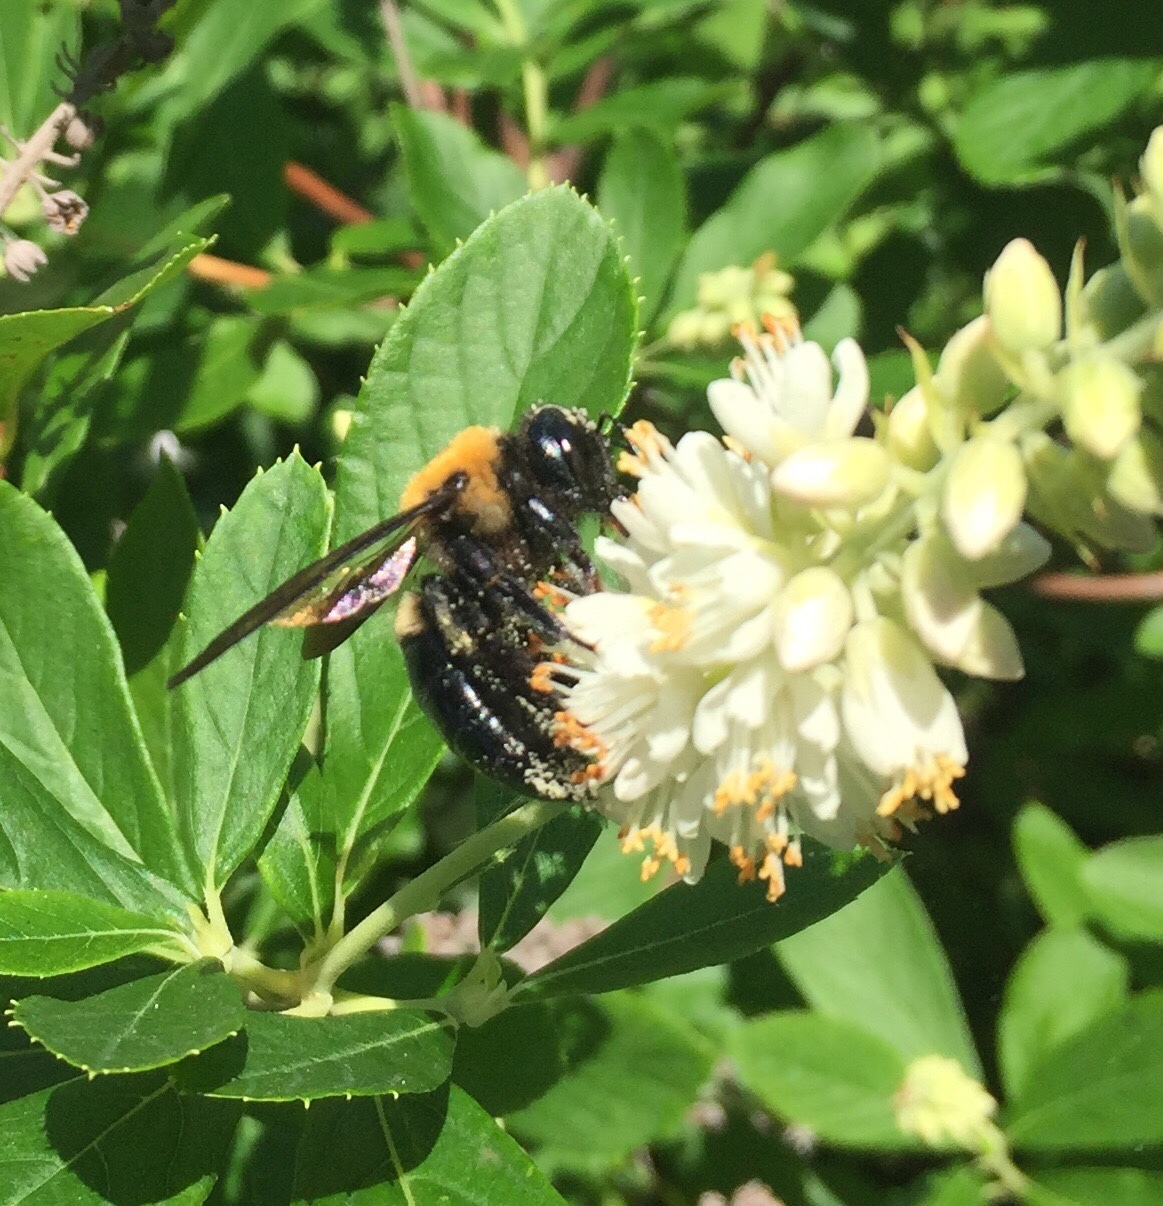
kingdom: Animalia
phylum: Arthropoda
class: Insecta
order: Hymenoptera
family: Apidae
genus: Xylocopa
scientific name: Xylocopa virginica
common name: Carpenter bee
